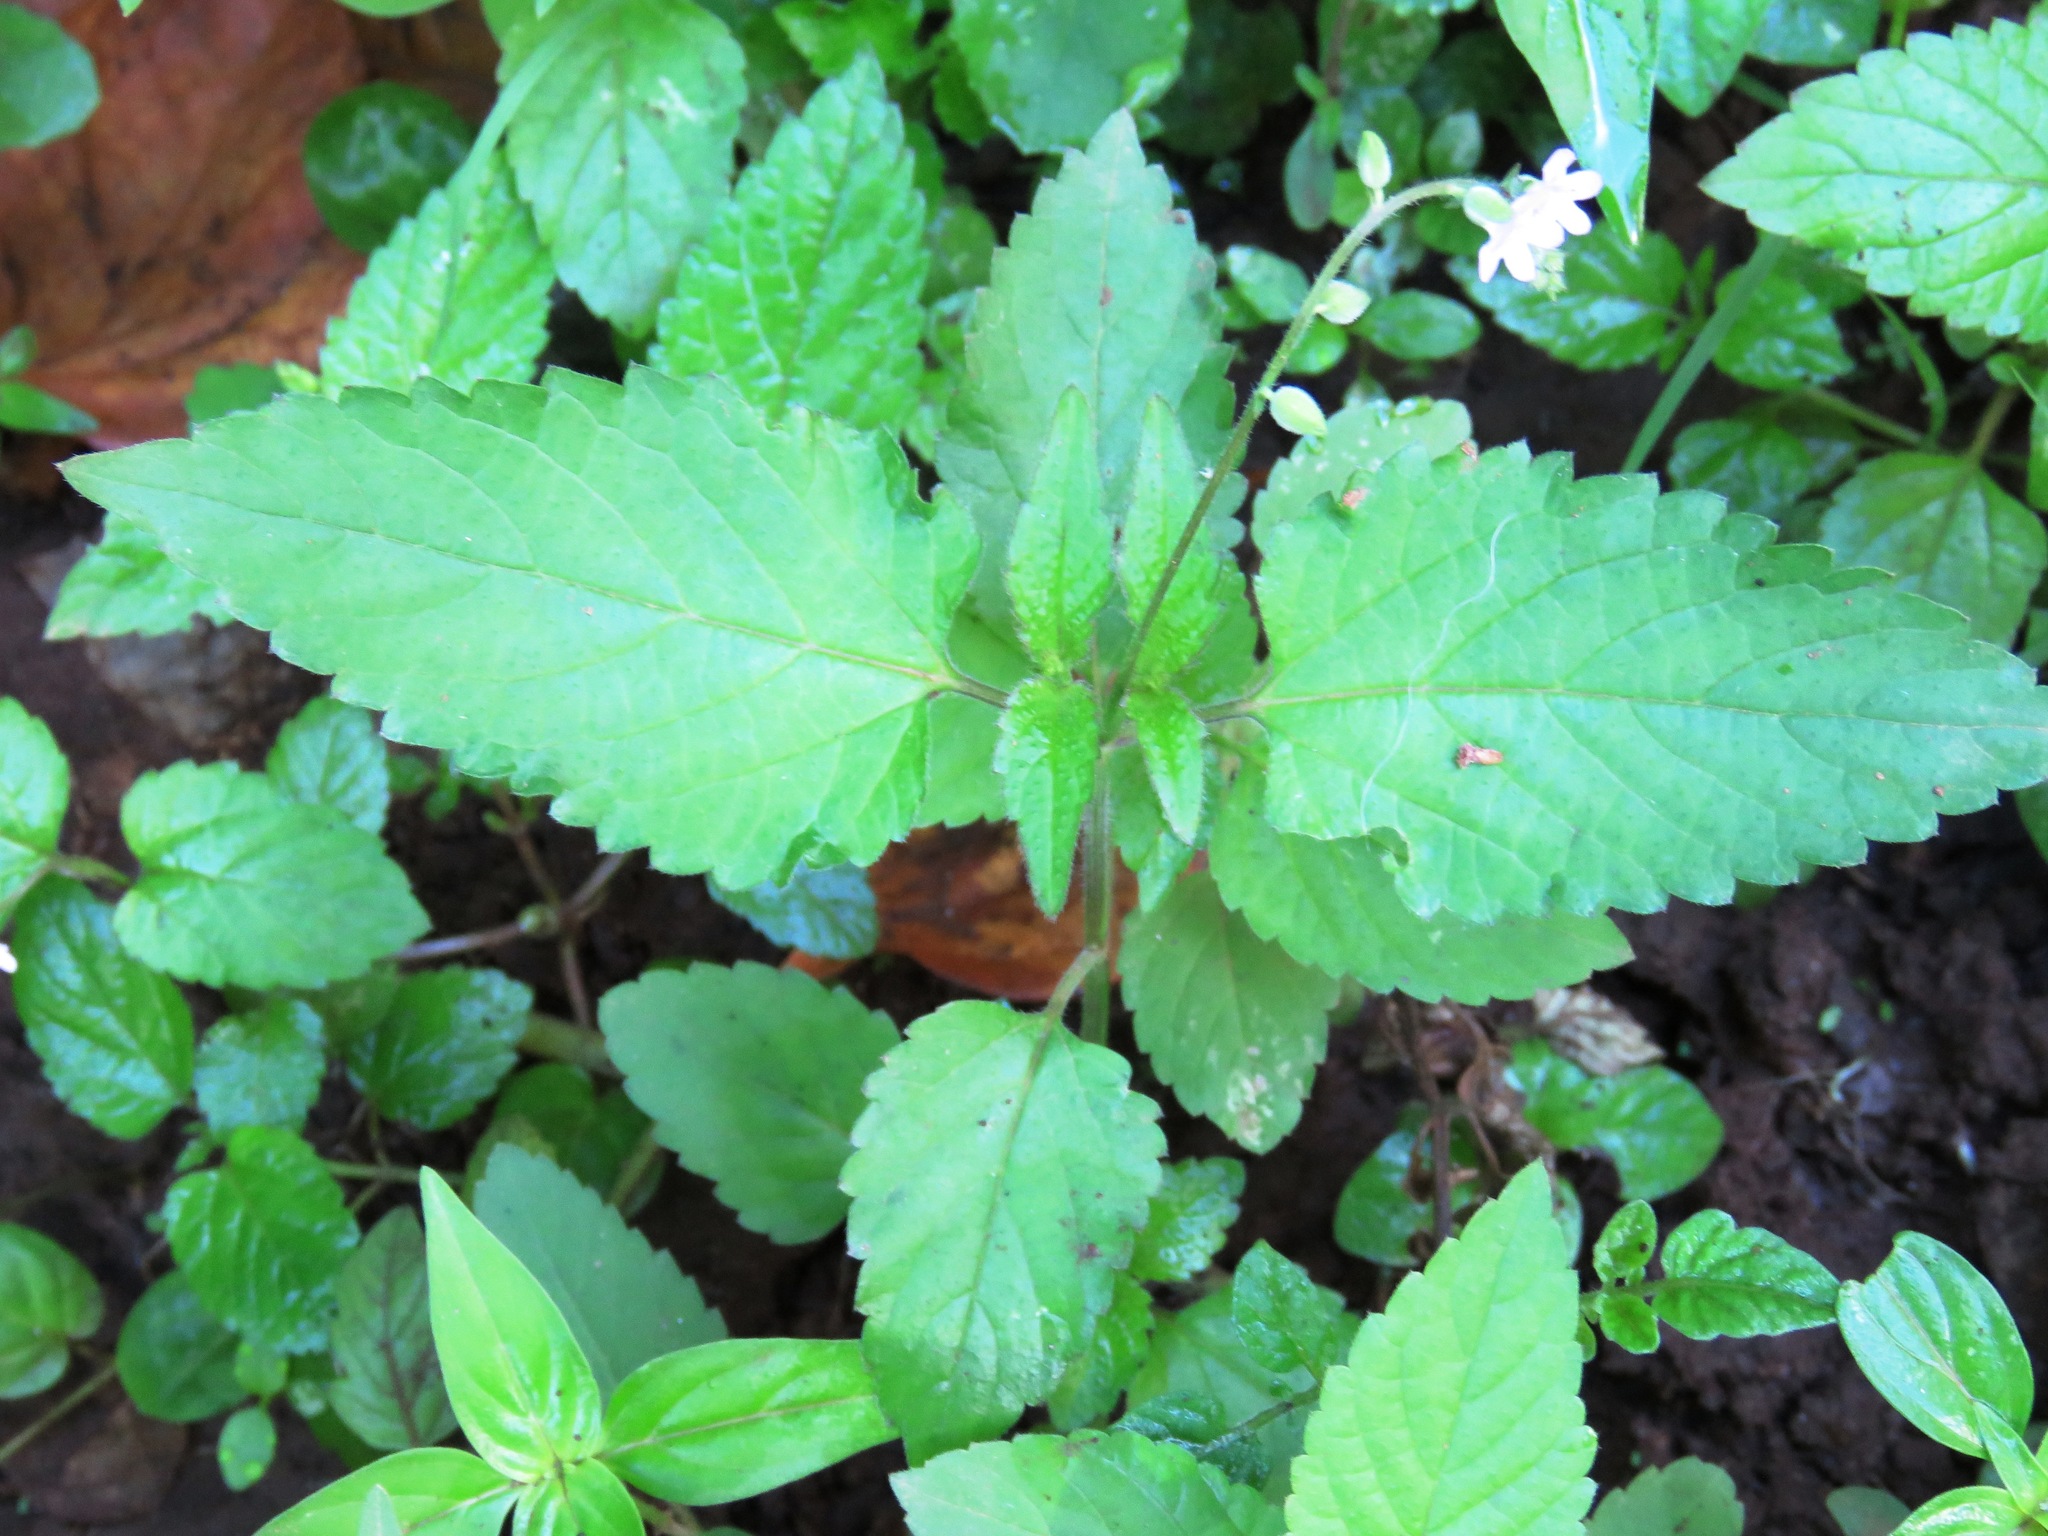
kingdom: Plantae
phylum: Tracheophyta
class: Magnoliopsida
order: Lamiales
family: Verbenaceae
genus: Priva
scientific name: Priva lappulacea
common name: Fasten-'pon-coat
